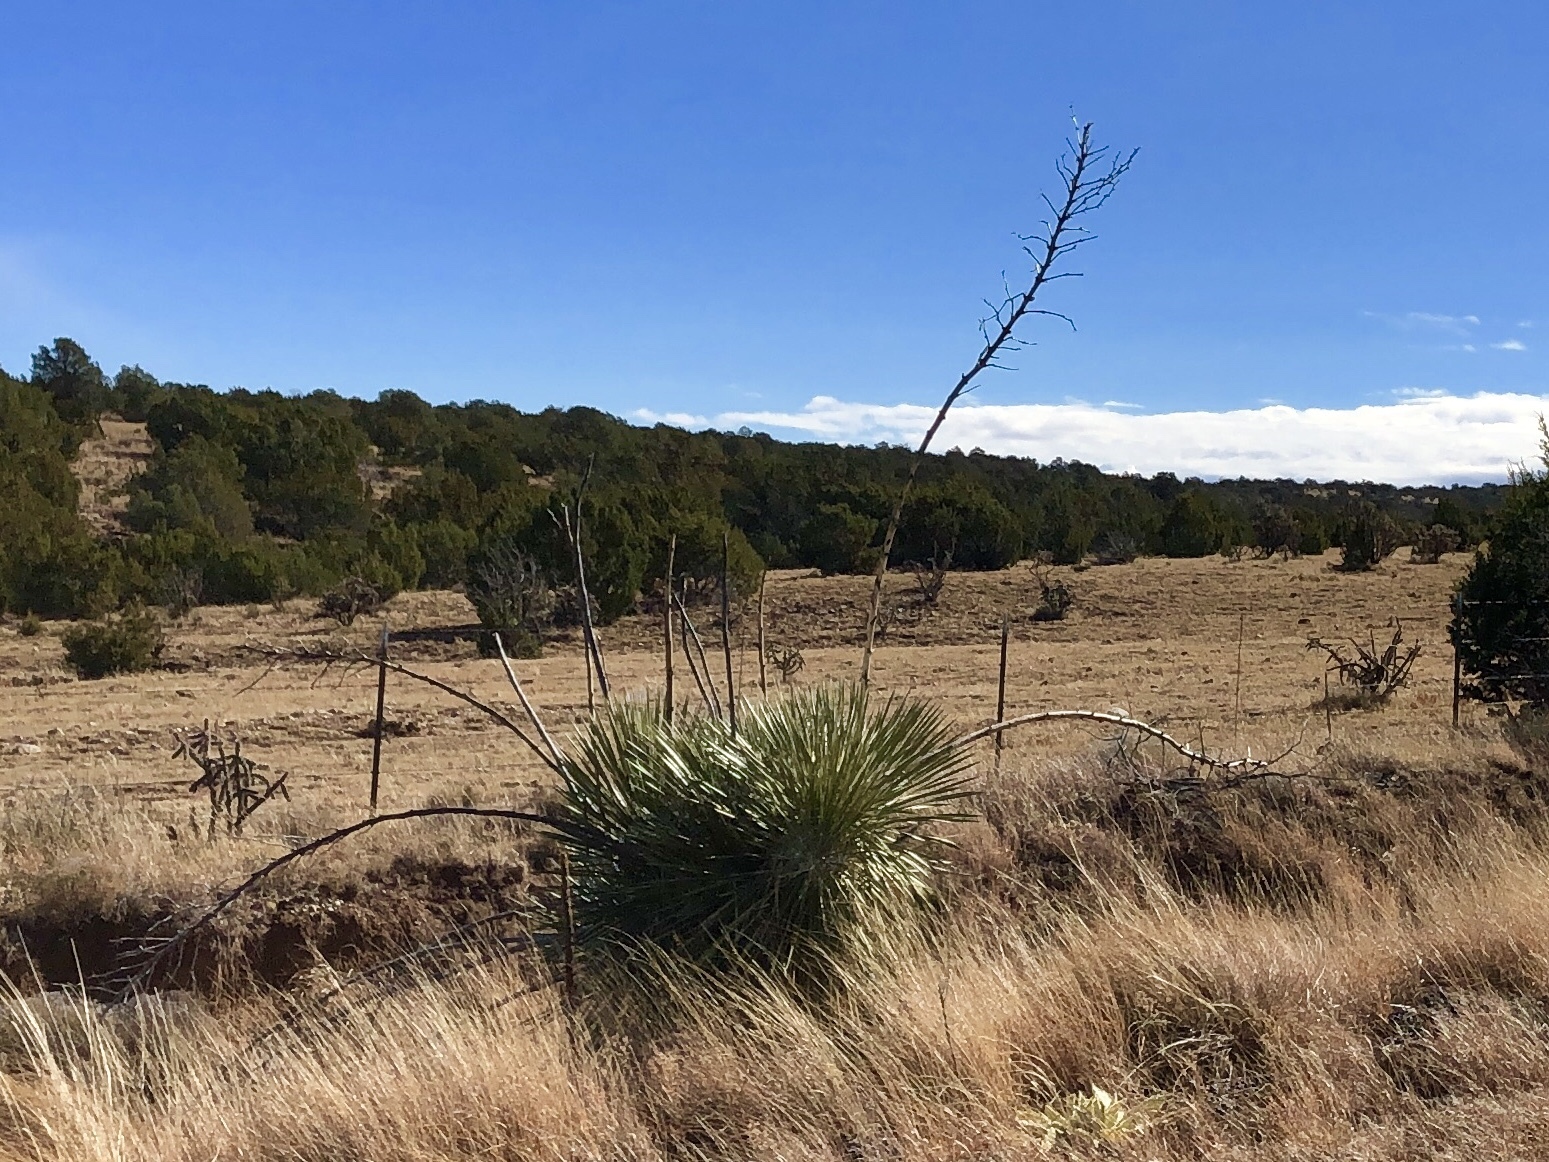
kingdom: Plantae
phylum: Tracheophyta
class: Liliopsida
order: Asparagales
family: Asparagaceae
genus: Yucca
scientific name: Yucca elata
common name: Palmella
